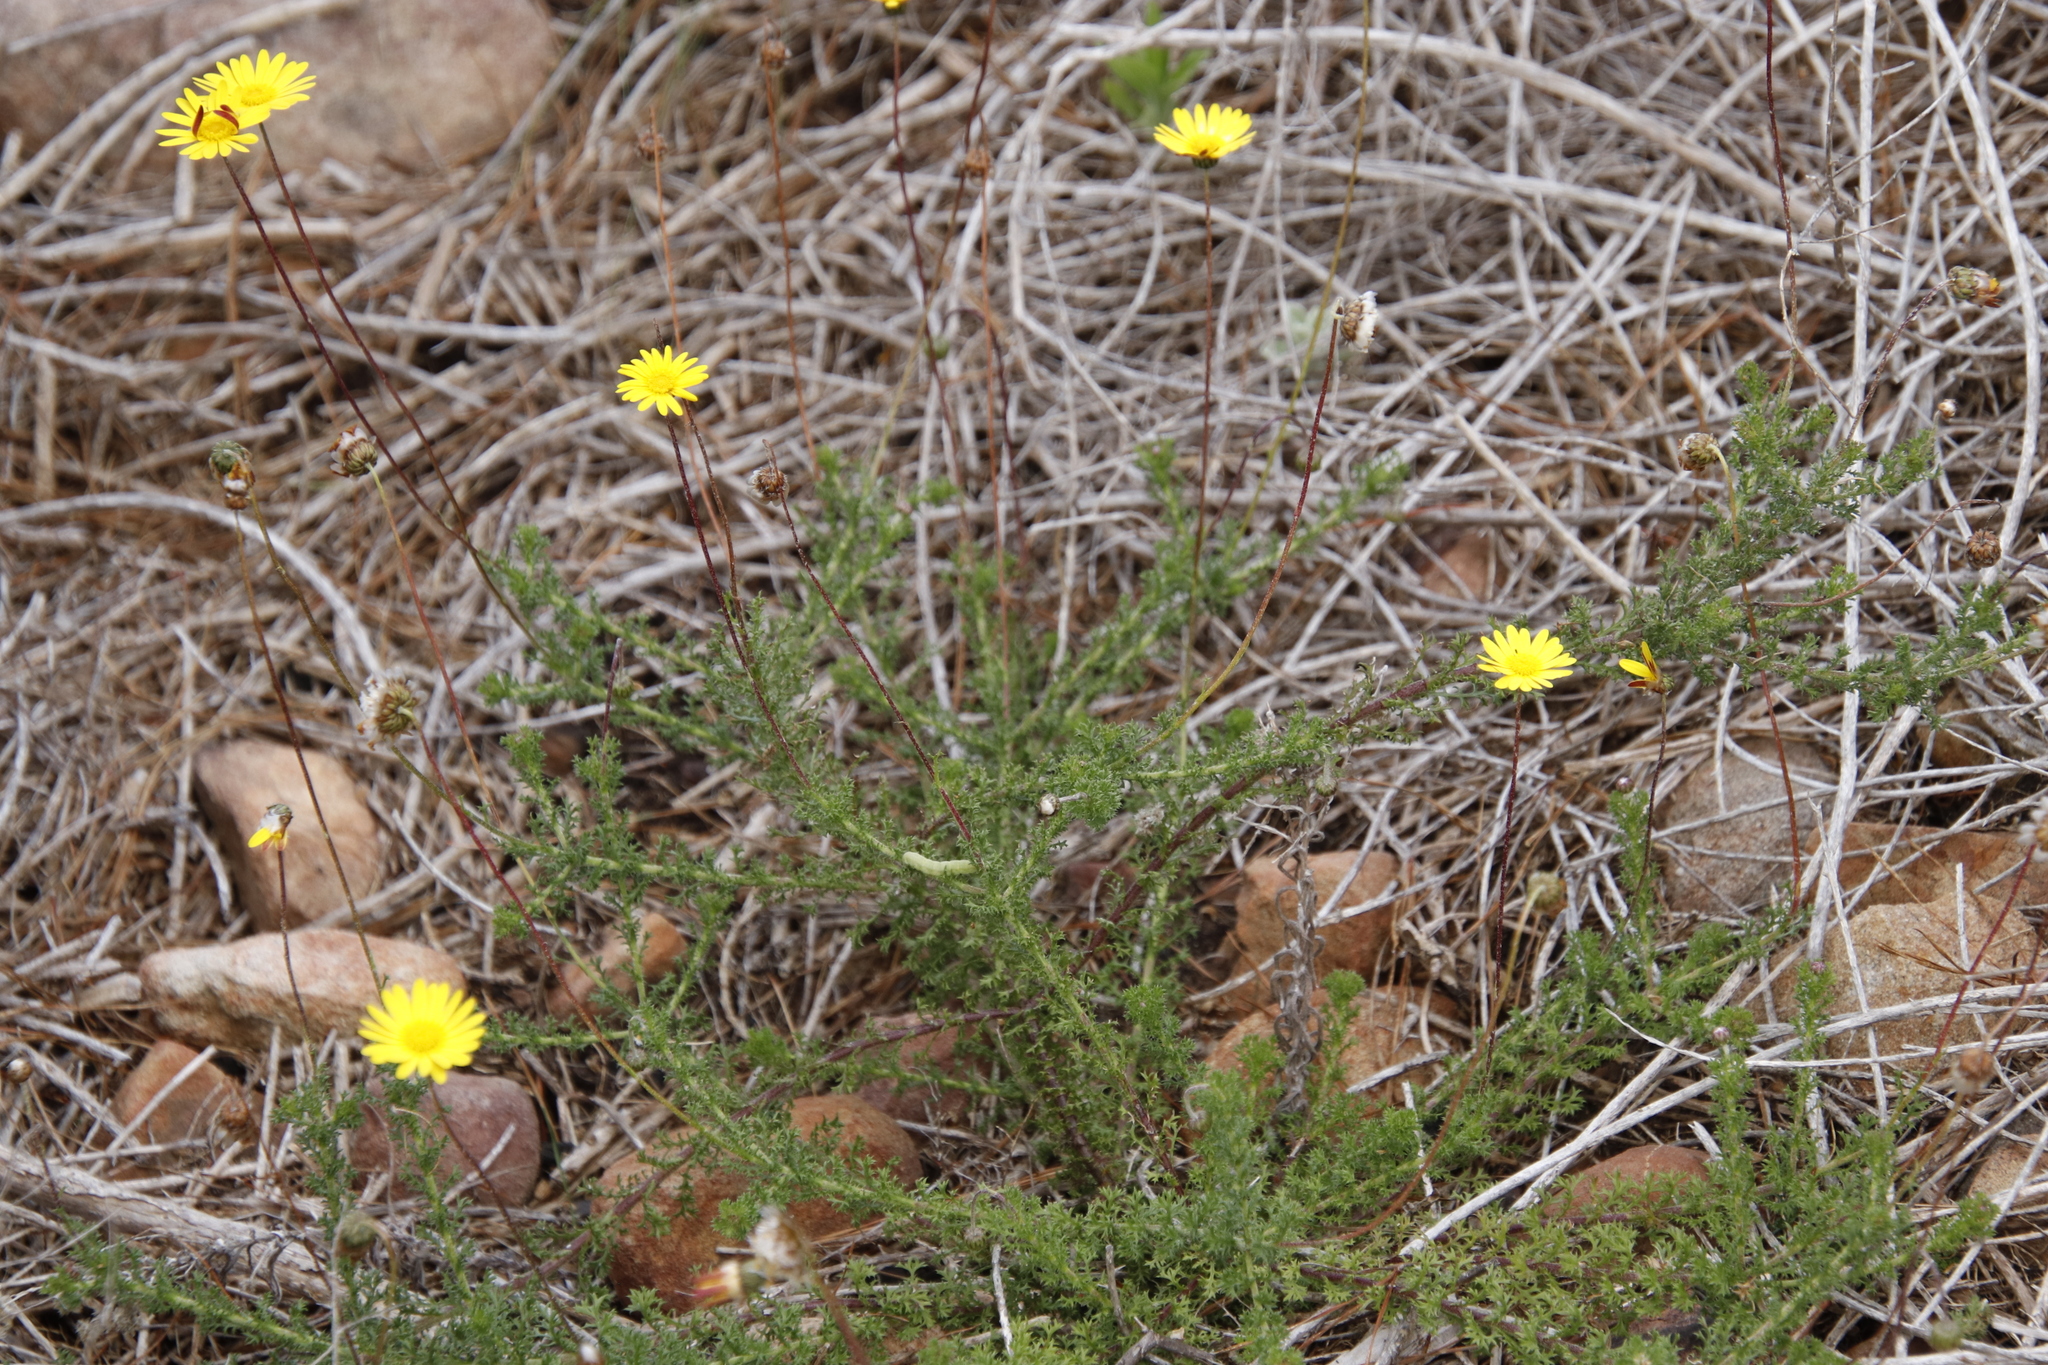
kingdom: Plantae
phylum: Tracheophyta
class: Magnoliopsida
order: Asterales
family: Asteraceae
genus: Ursinia
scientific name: Ursinia dentata
